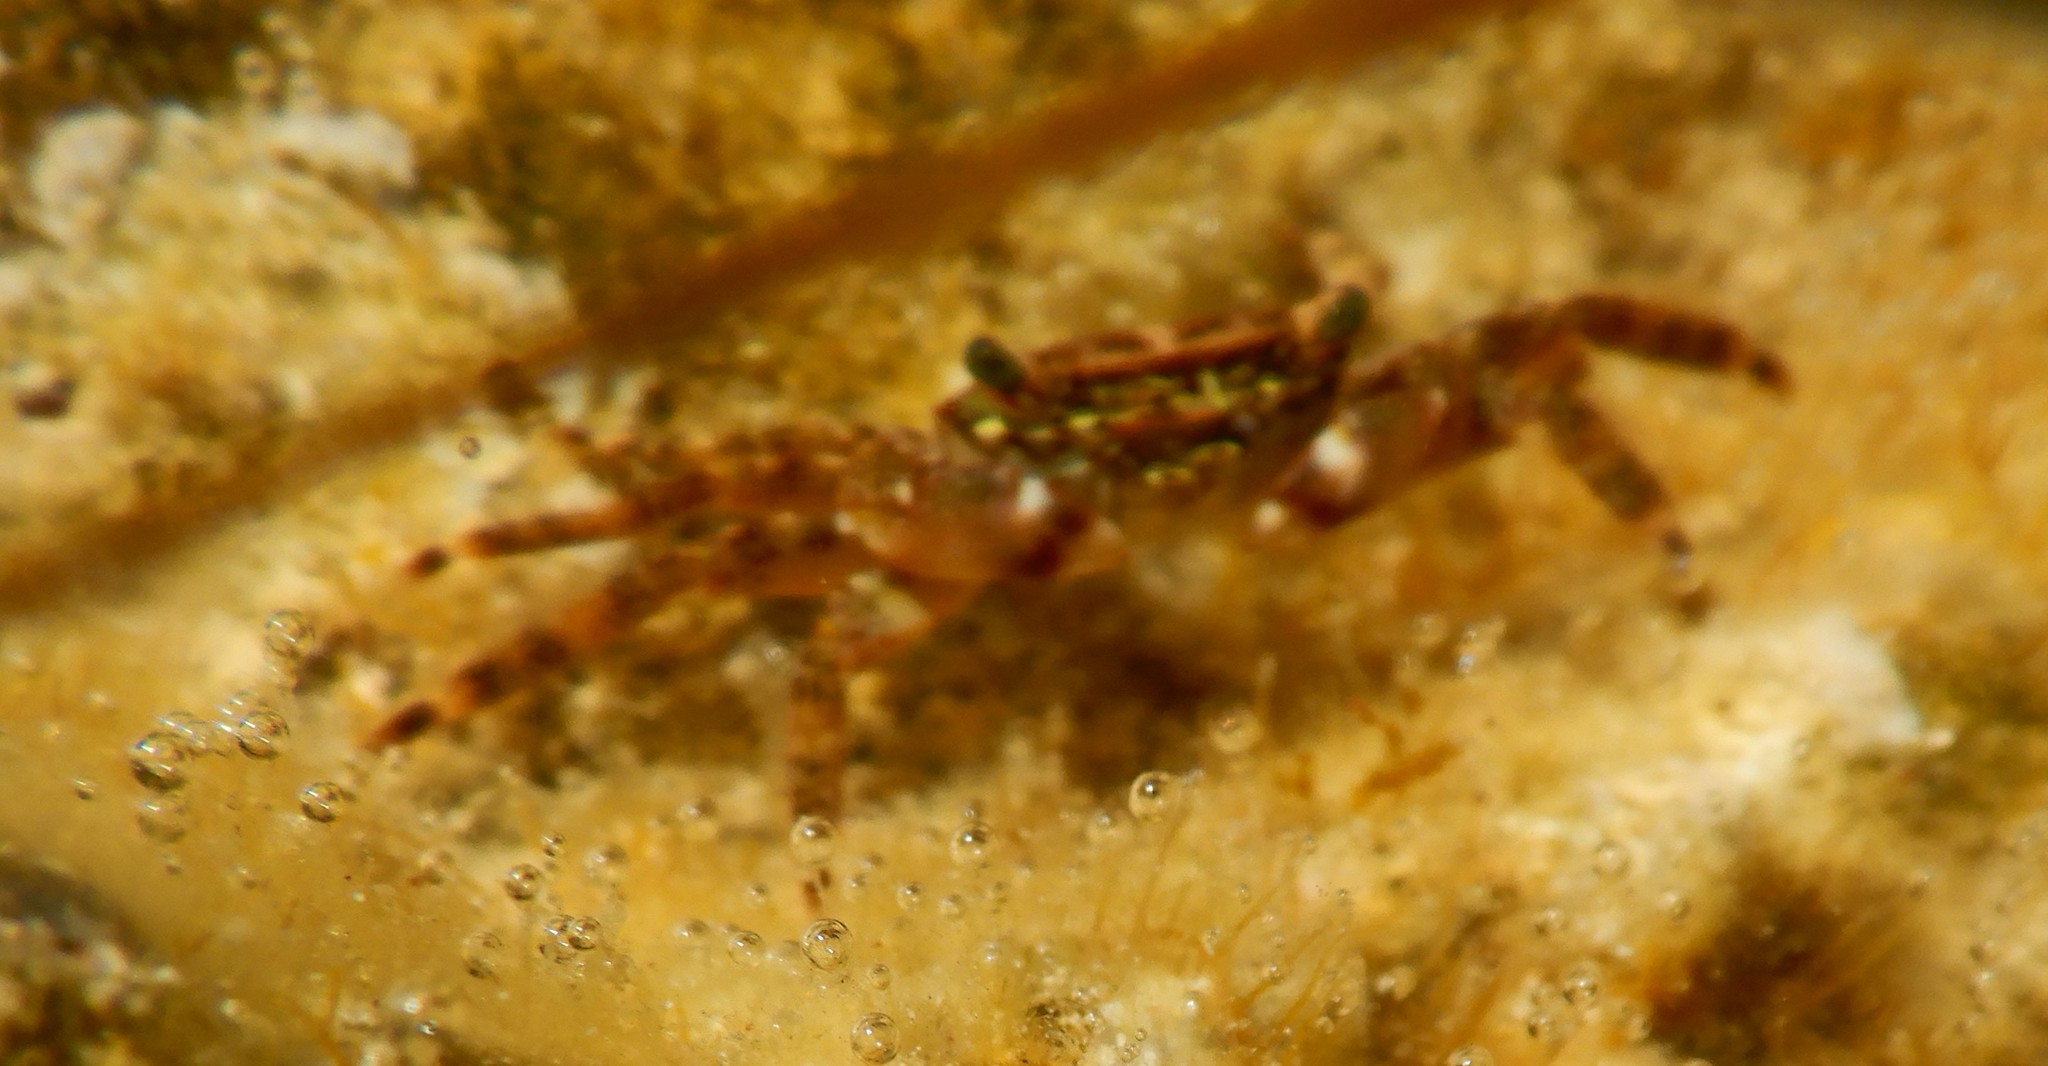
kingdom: Animalia
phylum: Arthropoda
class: Malacostraca
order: Decapoda
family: Grapsidae
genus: Pachygrapsus
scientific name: Pachygrapsus marmoratus
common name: Marbled rock crab
